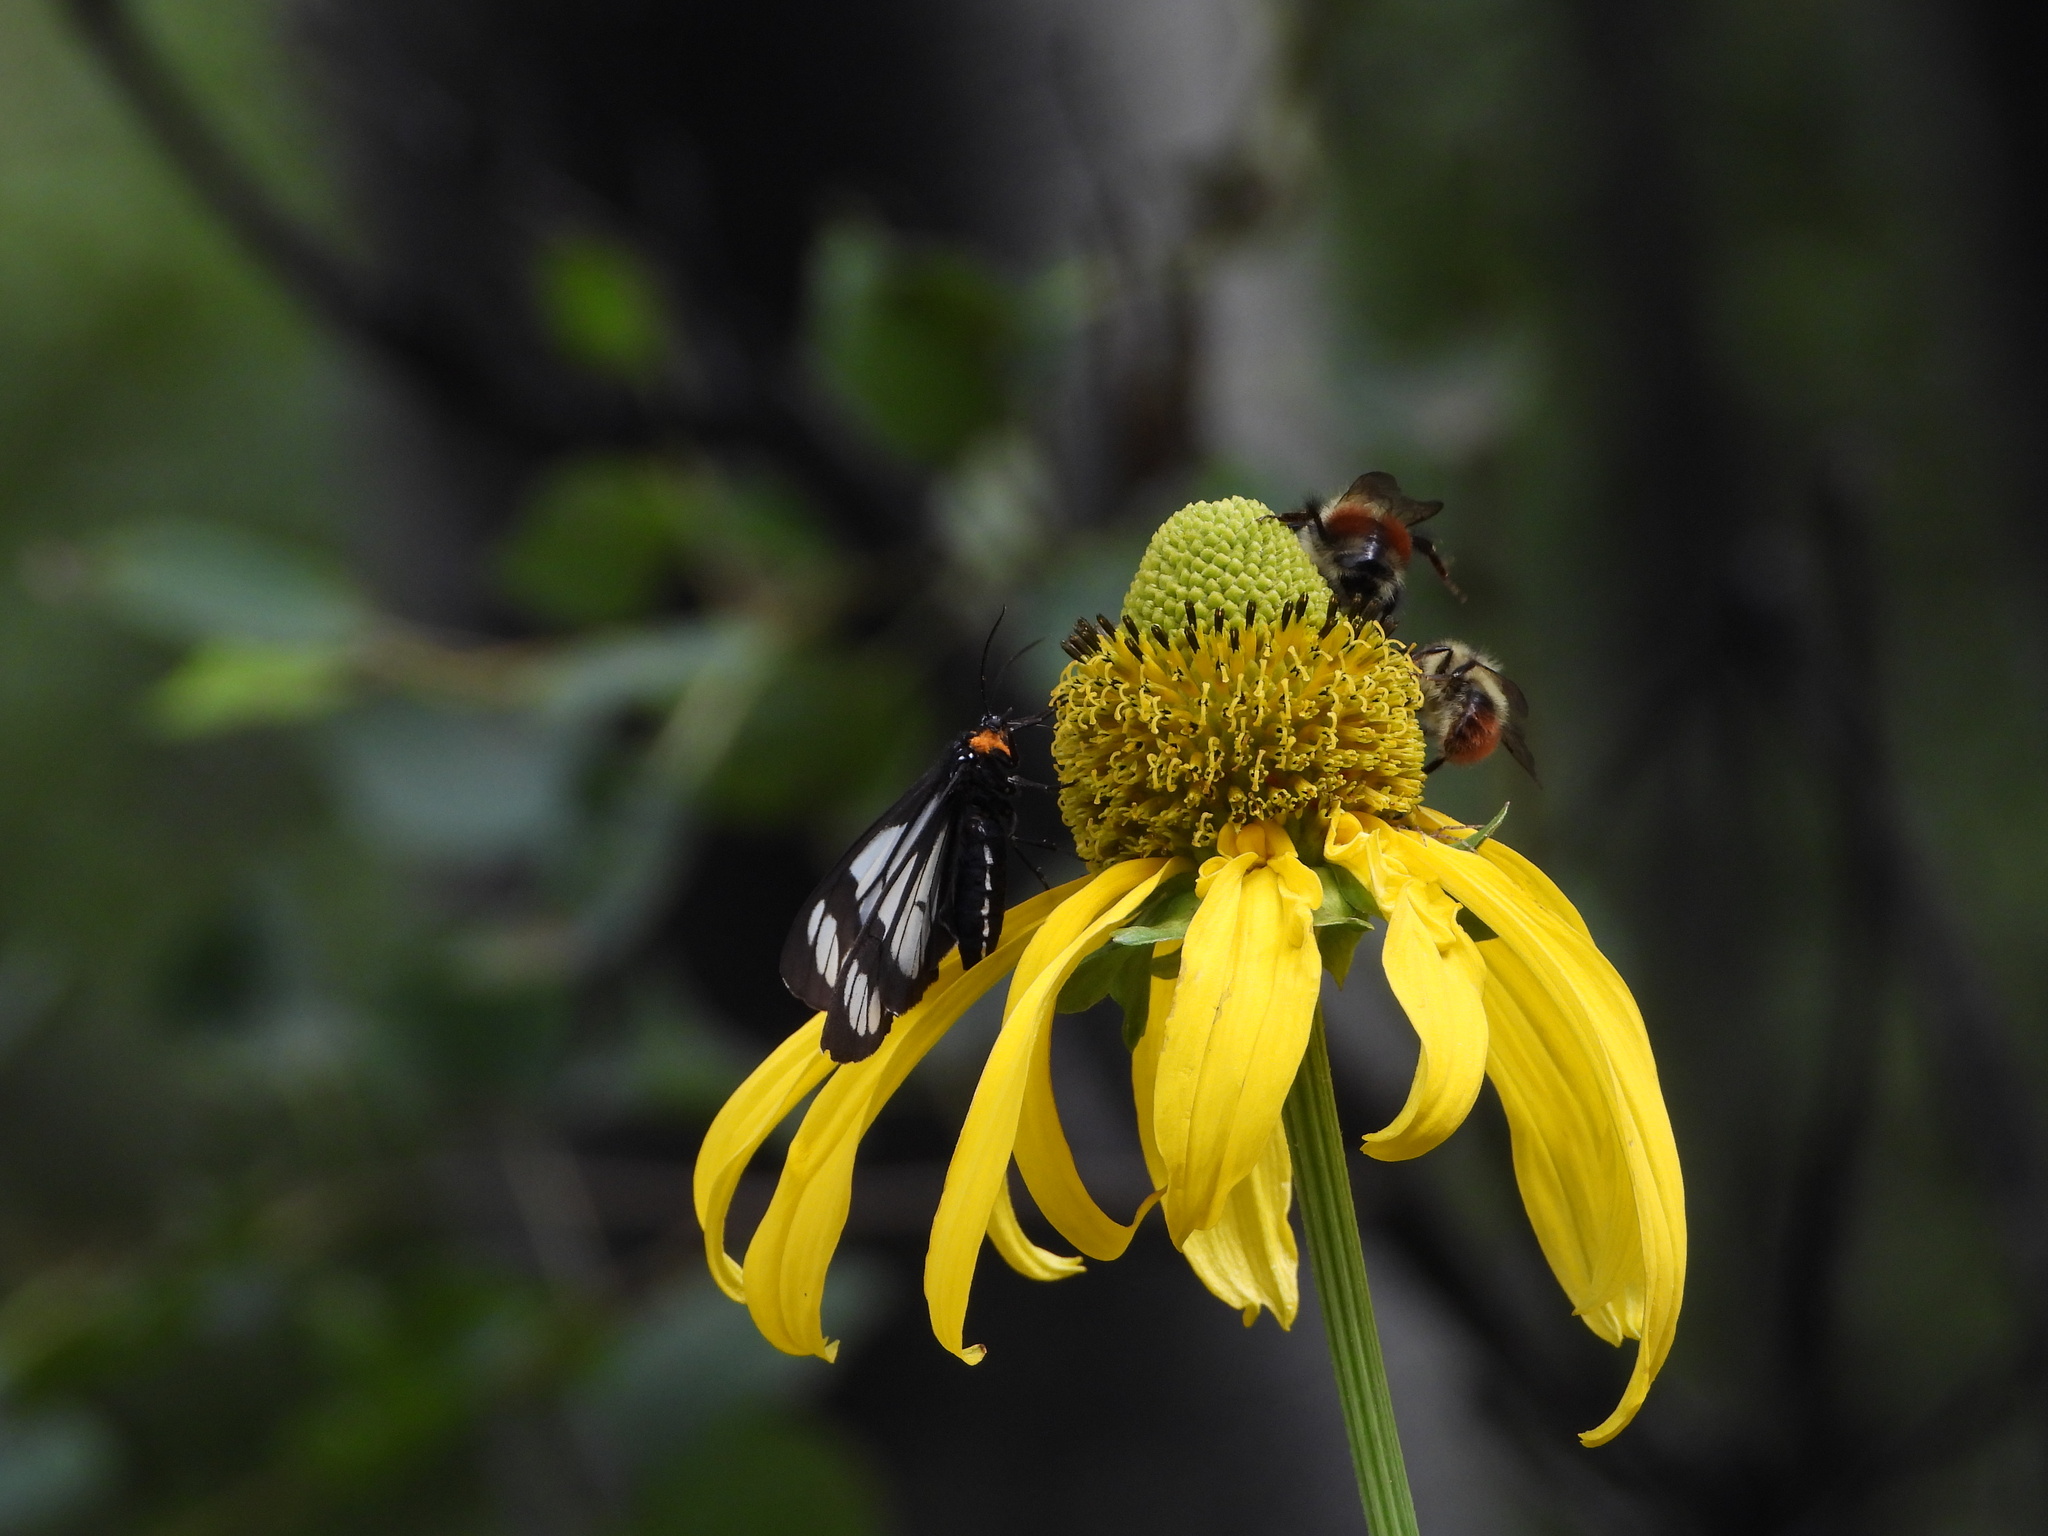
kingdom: Plantae
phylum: Tracheophyta
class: Magnoliopsida
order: Asterales
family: Asteraceae
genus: Rudbeckia
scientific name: Rudbeckia laciniata
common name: Coneflower
